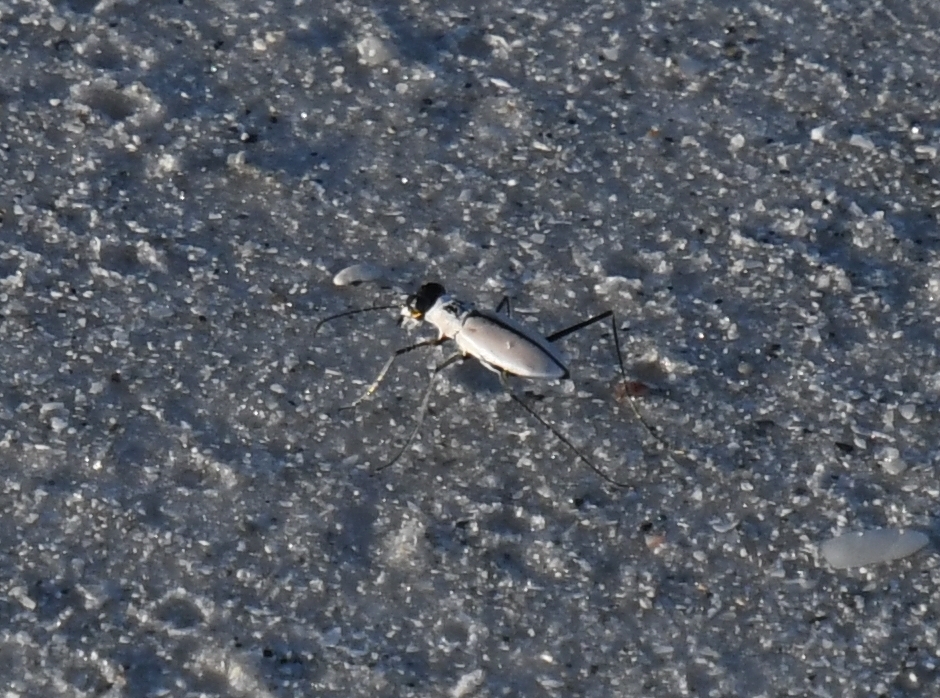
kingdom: Animalia
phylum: Arthropoda
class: Insecta
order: Coleoptera
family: Carabidae
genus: Habroscelimorpha
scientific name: Habroscelimorpha dorsalis
